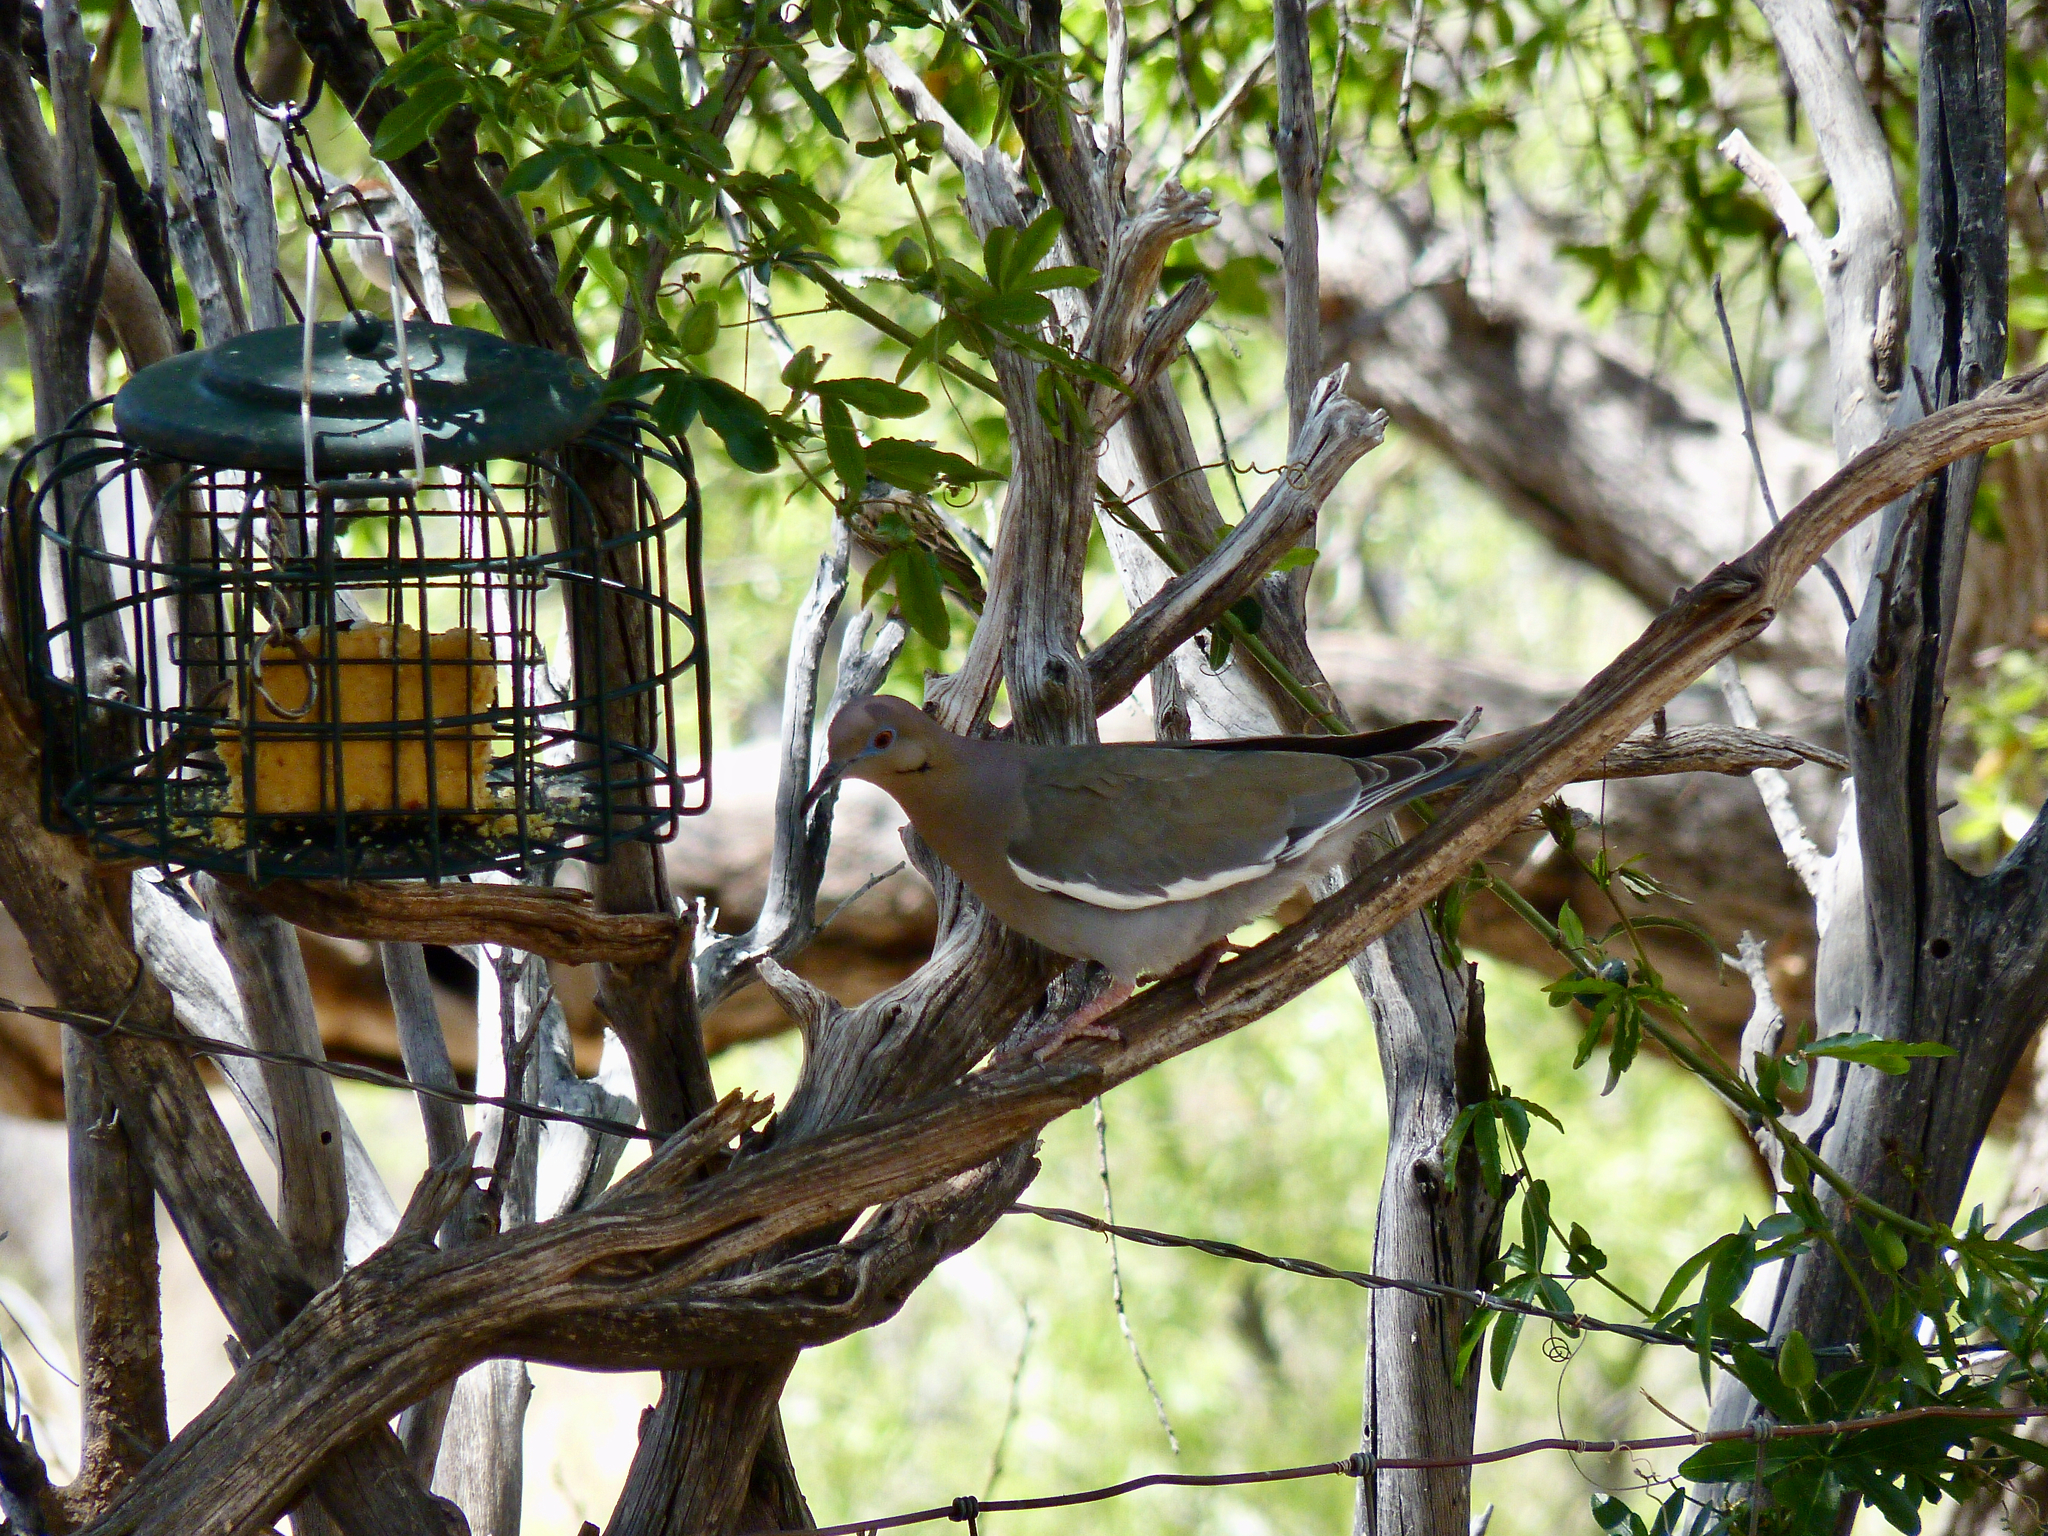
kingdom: Animalia
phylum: Chordata
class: Aves
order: Columbiformes
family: Columbidae
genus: Zenaida
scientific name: Zenaida asiatica
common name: White-winged dove
